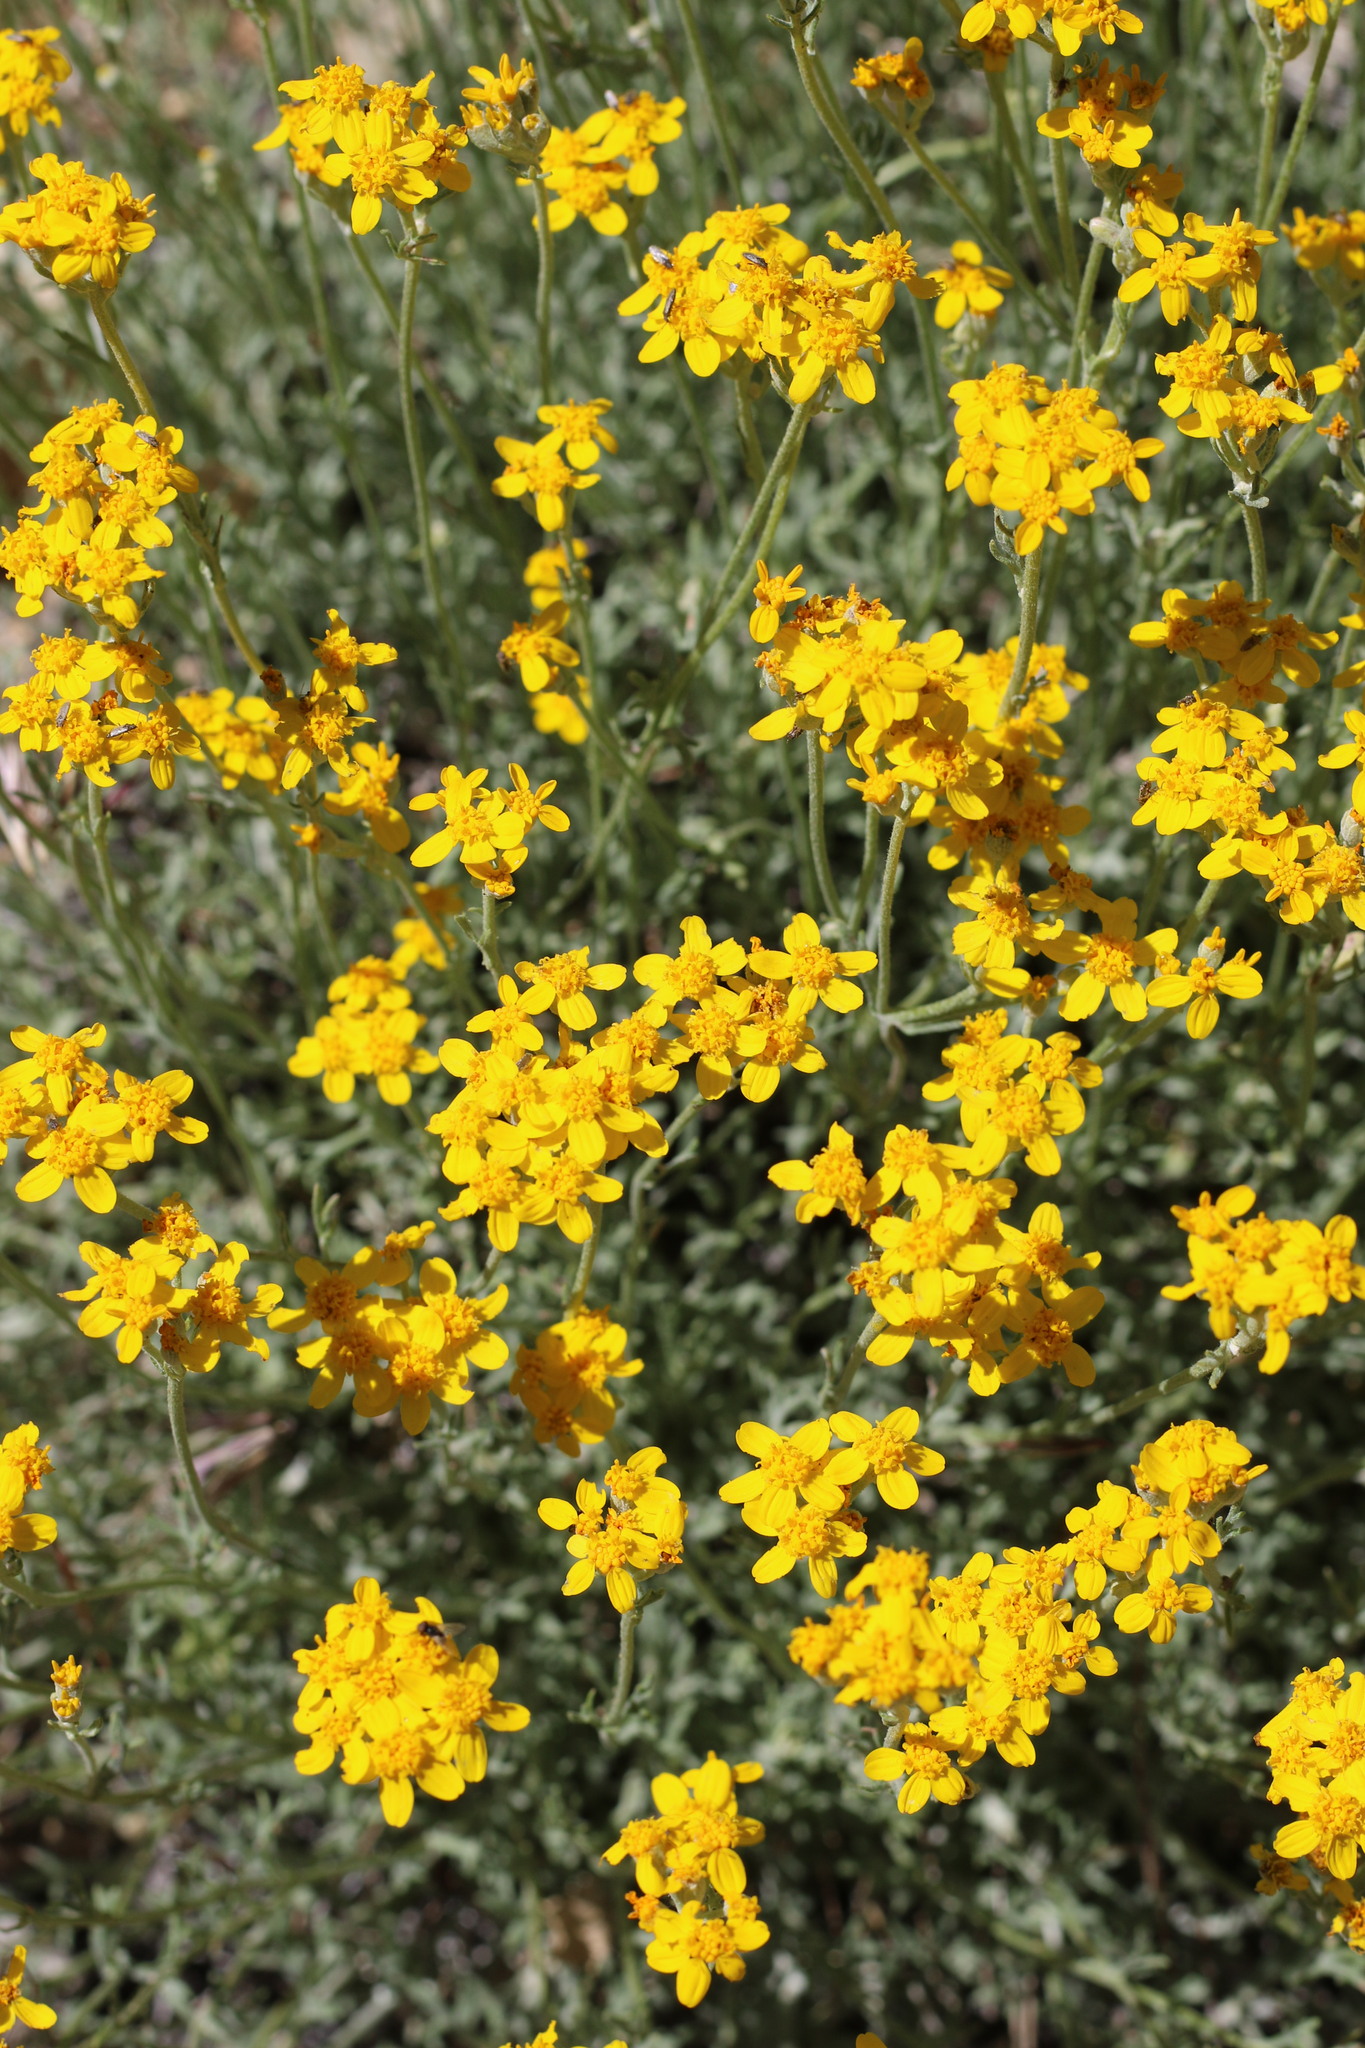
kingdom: Plantae
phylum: Tracheophyta
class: Magnoliopsida
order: Asterales
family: Asteraceae
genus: Eriophyllum
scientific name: Eriophyllum confertiflorum
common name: Golden-yarrow
